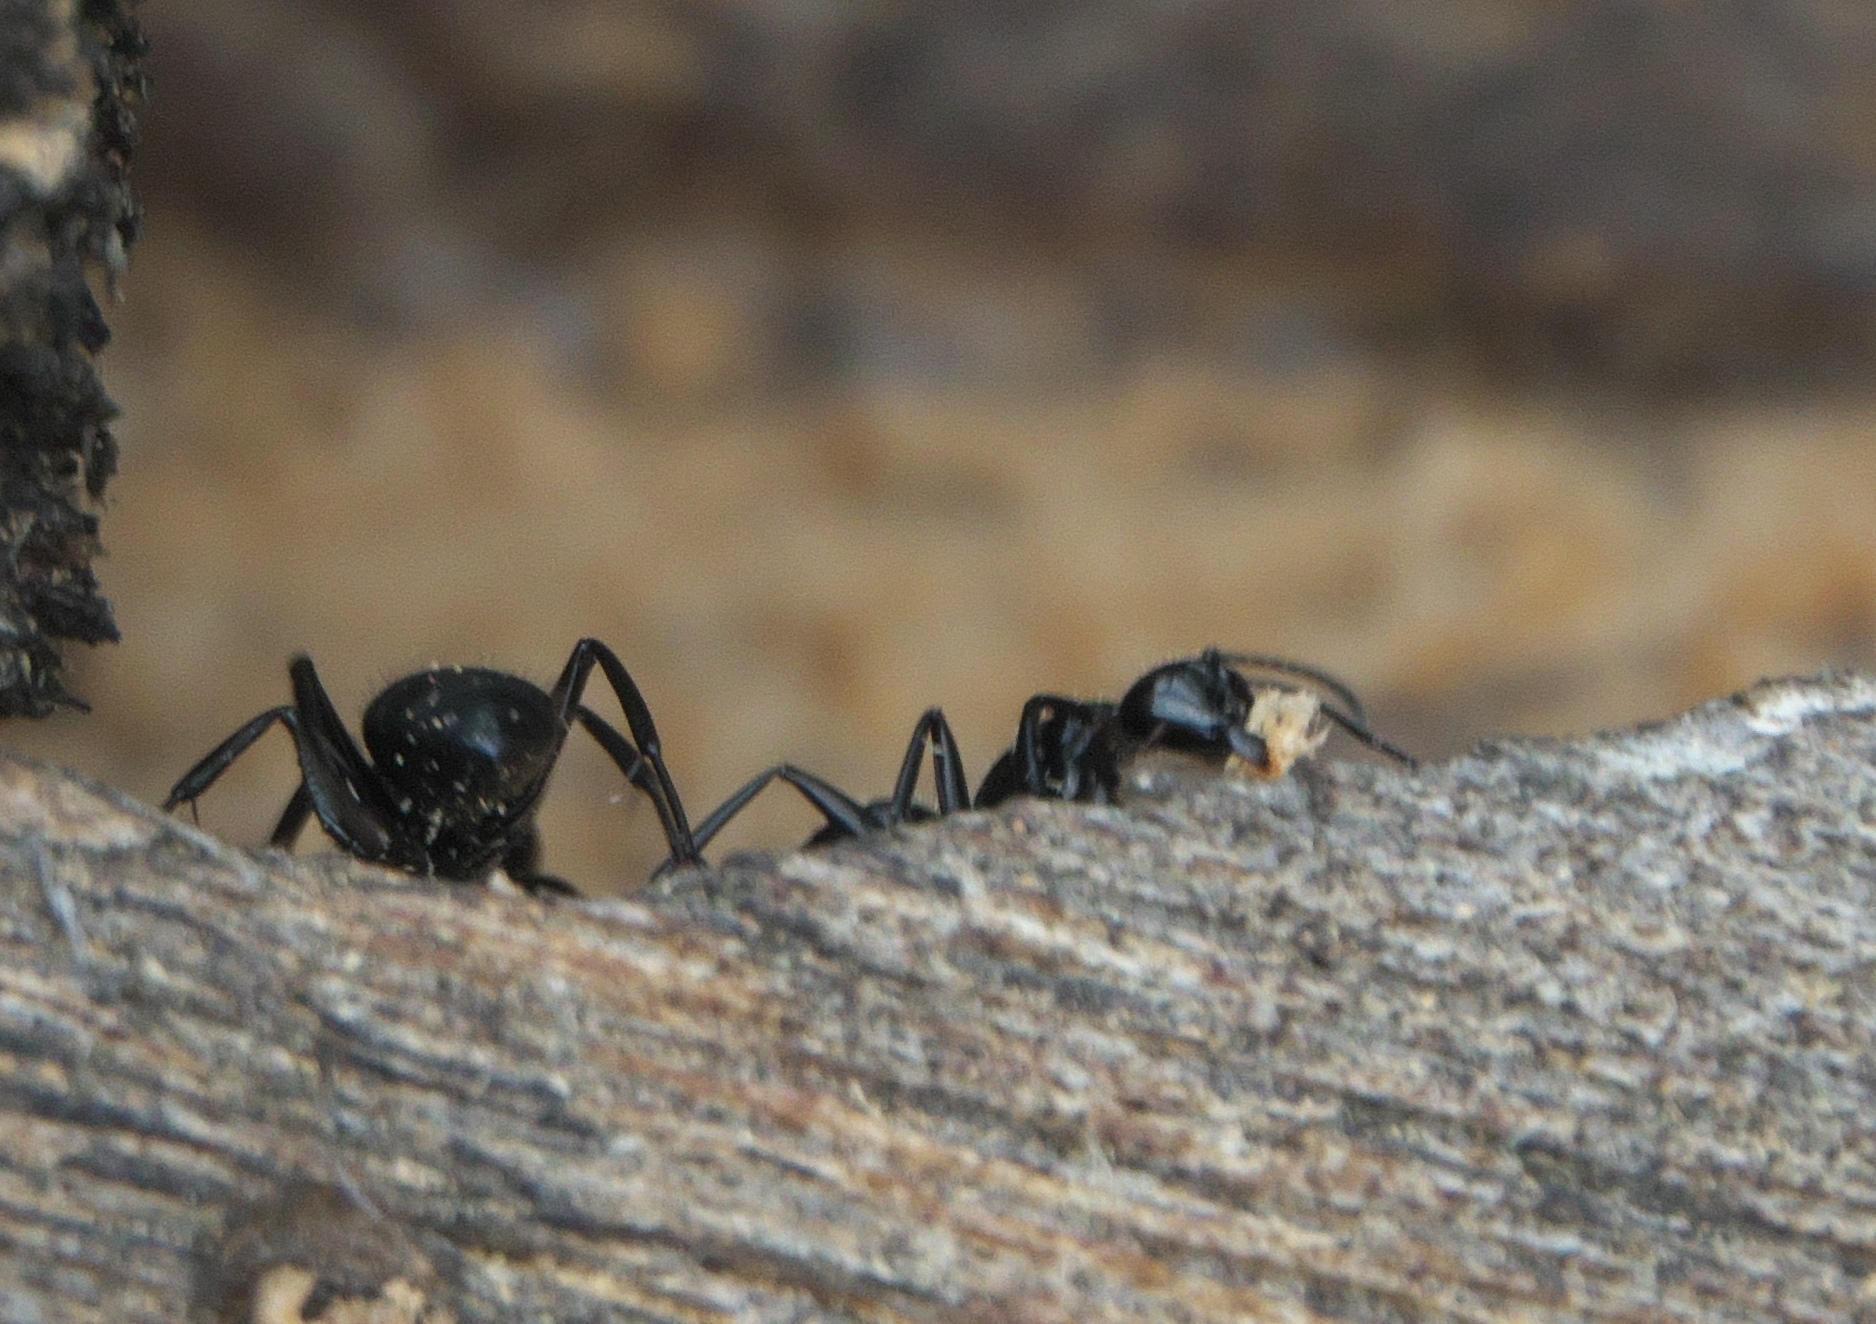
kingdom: Animalia
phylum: Arthropoda
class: Insecta
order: Hymenoptera
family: Formicidae
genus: Camponotus
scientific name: Camponotus
